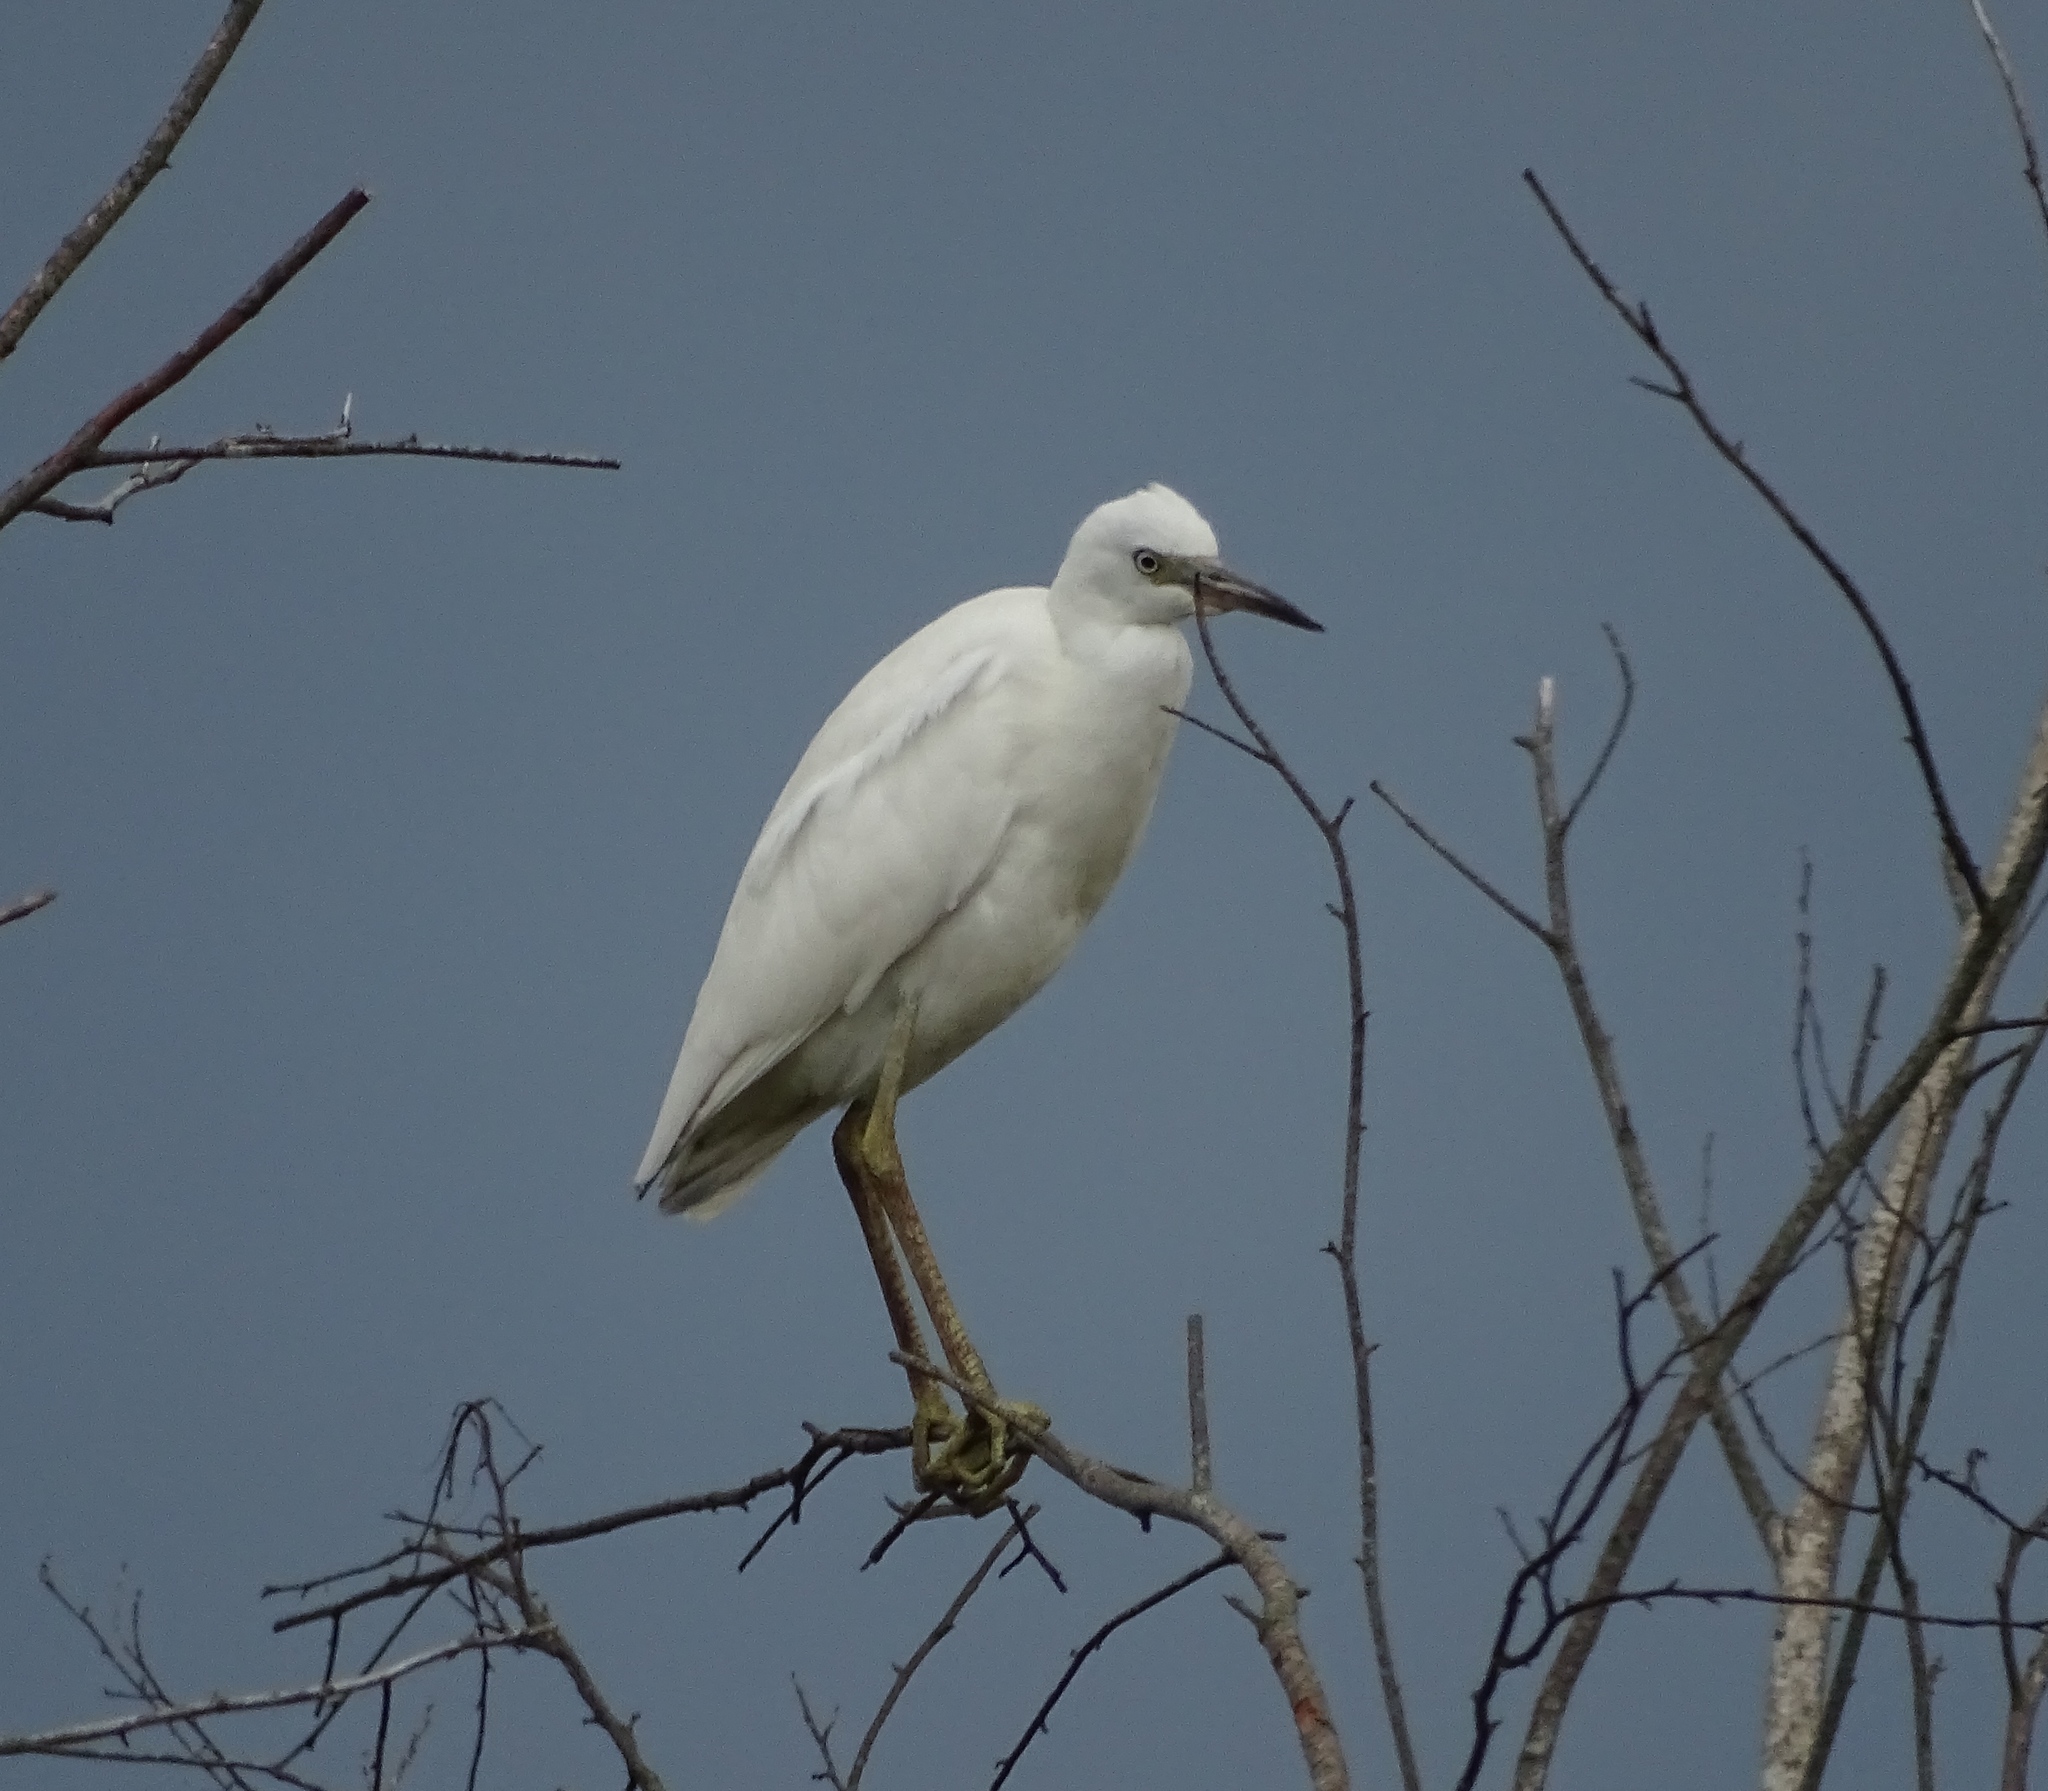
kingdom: Animalia
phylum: Chordata
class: Aves
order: Pelecaniformes
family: Ardeidae
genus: Egretta
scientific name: Egretta caerulea
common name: Little blue heron
